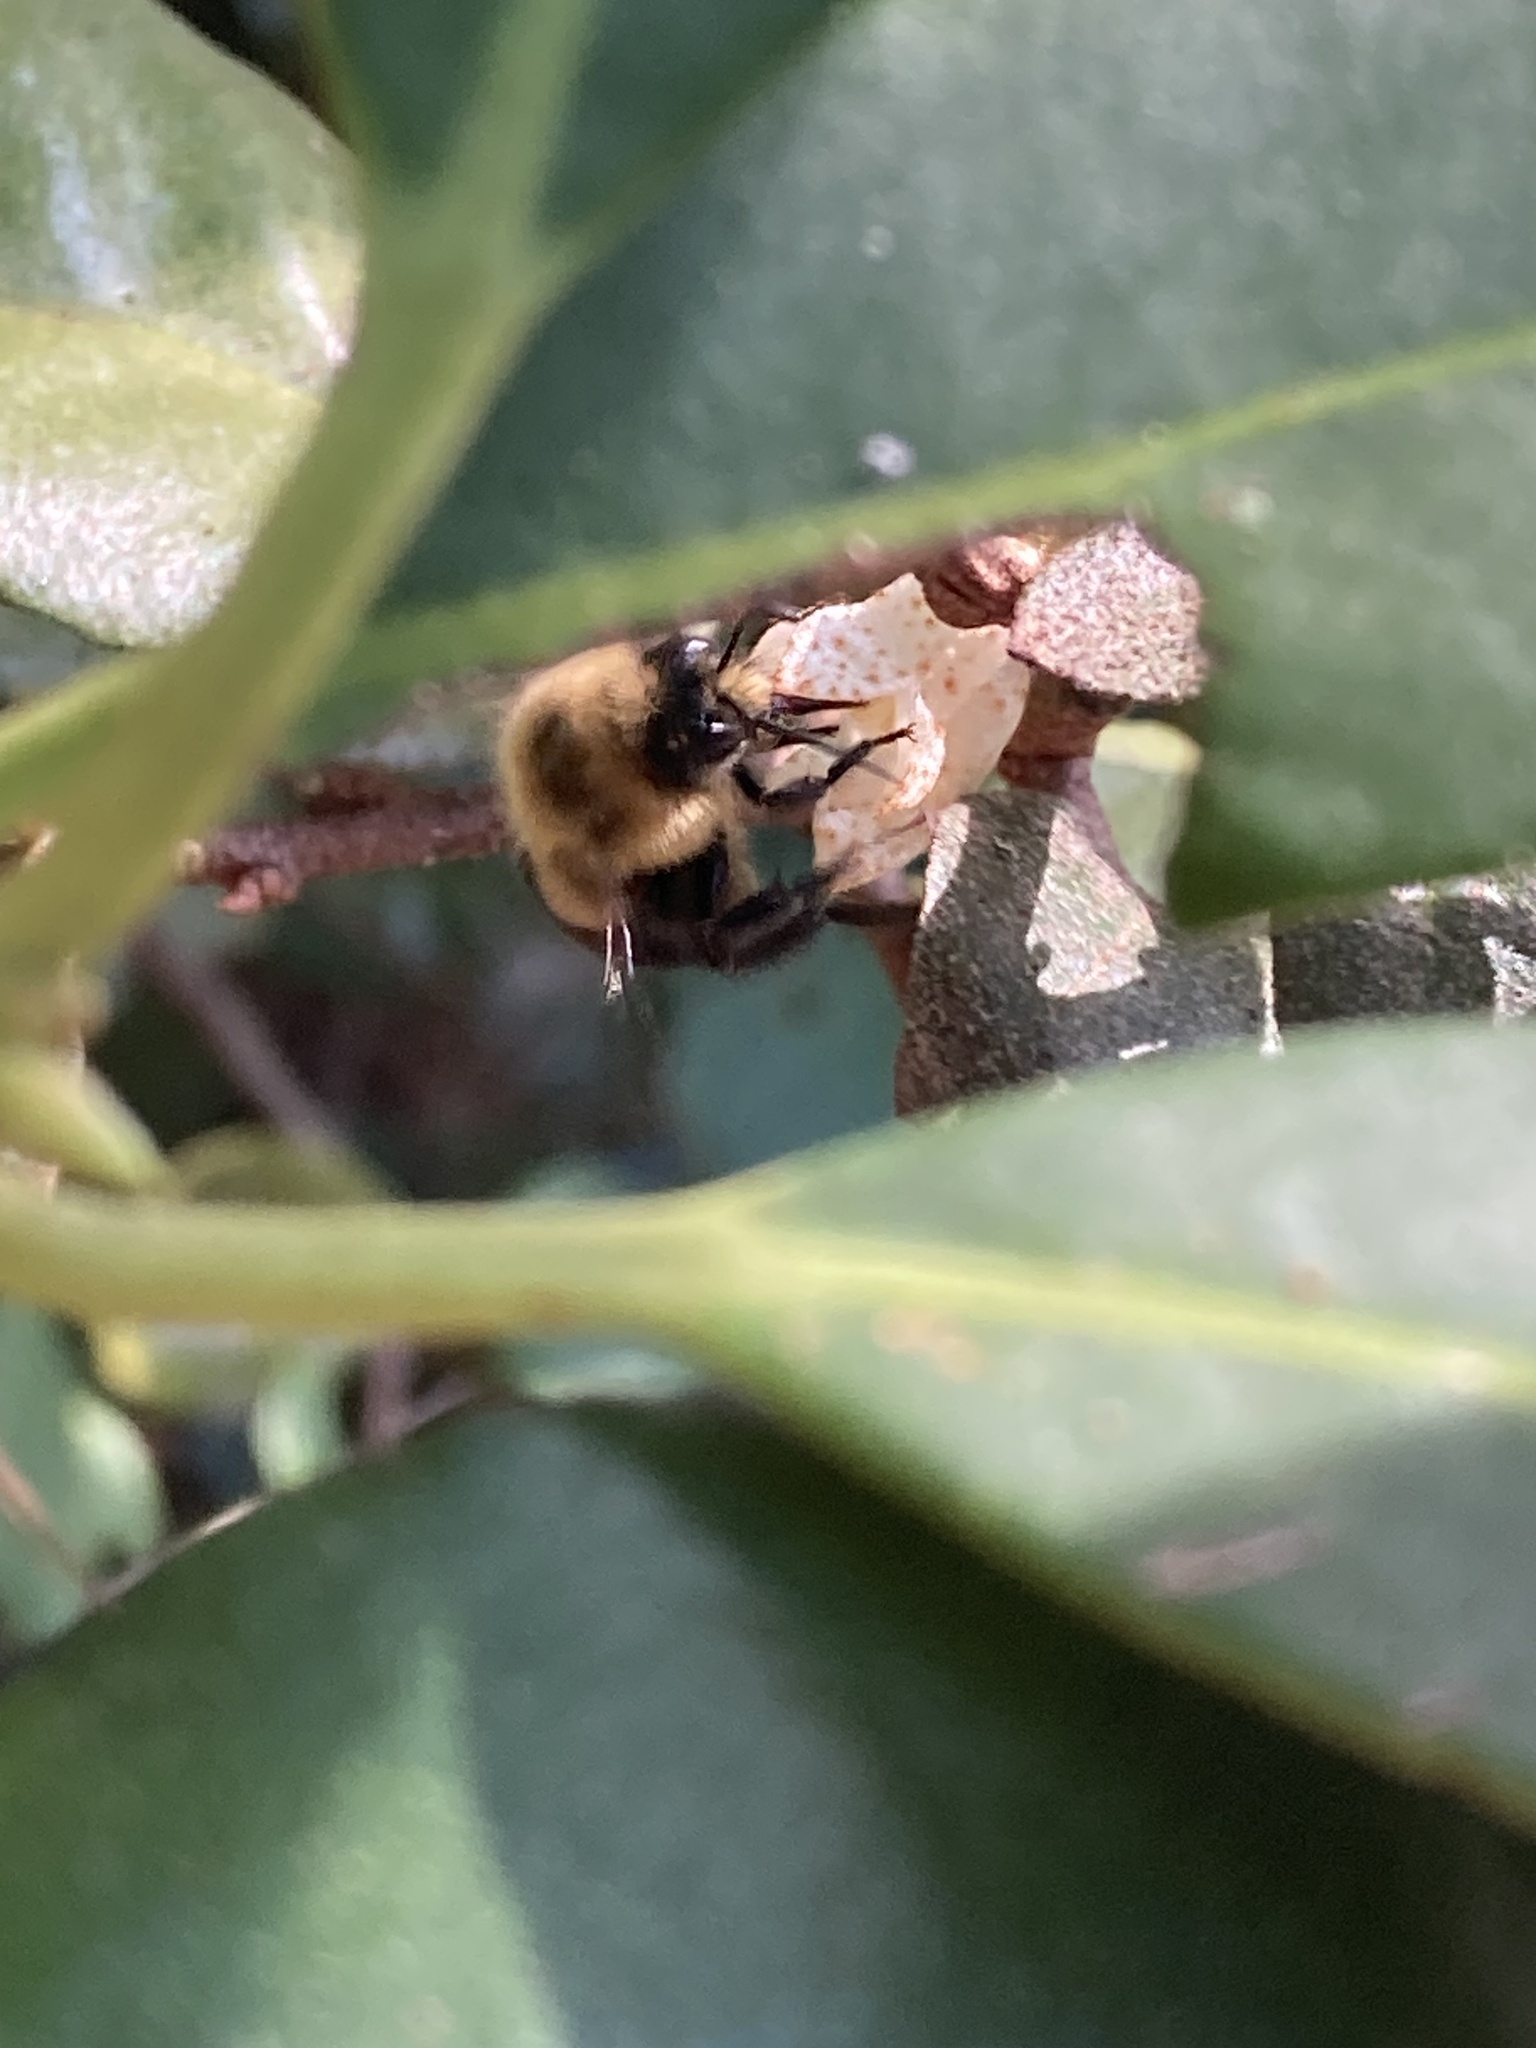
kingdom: Animalia
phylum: Arthropoda
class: Insecta
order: Hymenoptera
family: Apidae
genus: Bombus
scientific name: Bombus impatiens
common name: Common eastern bumble bee
